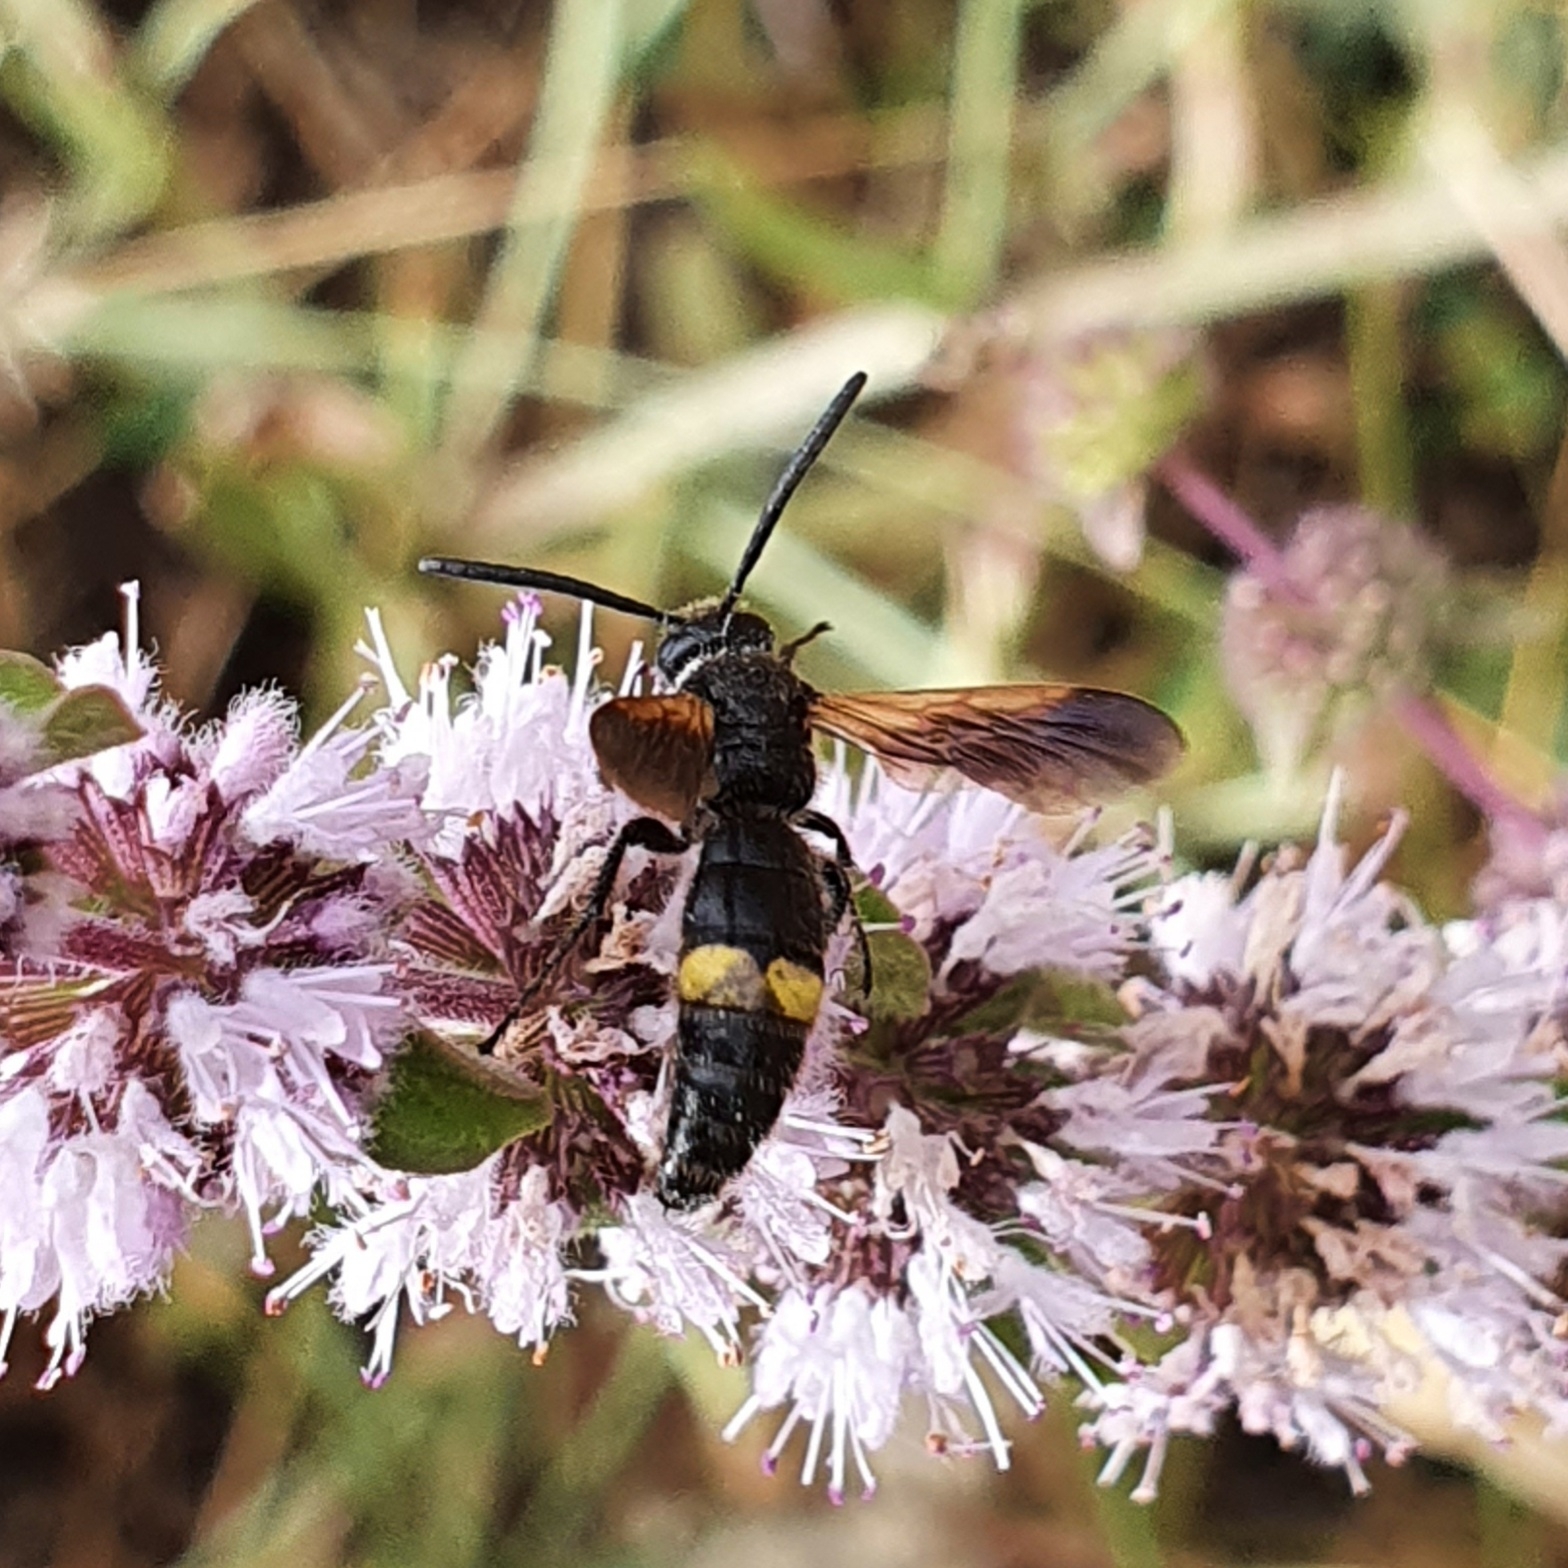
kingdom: Animalia
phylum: Arthropoda
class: Insecta
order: Hymenoptera
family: Scoliidae
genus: Scolia
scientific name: Scolia hirta
